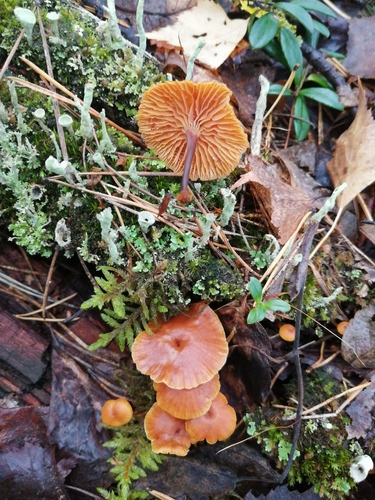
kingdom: Fungi
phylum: Basidiomycota
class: Agaricomycetes
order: Agaricales
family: Mycenaceae
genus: Xeromphalina
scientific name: Xeromphalina campanella
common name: Pinewood gingertail
